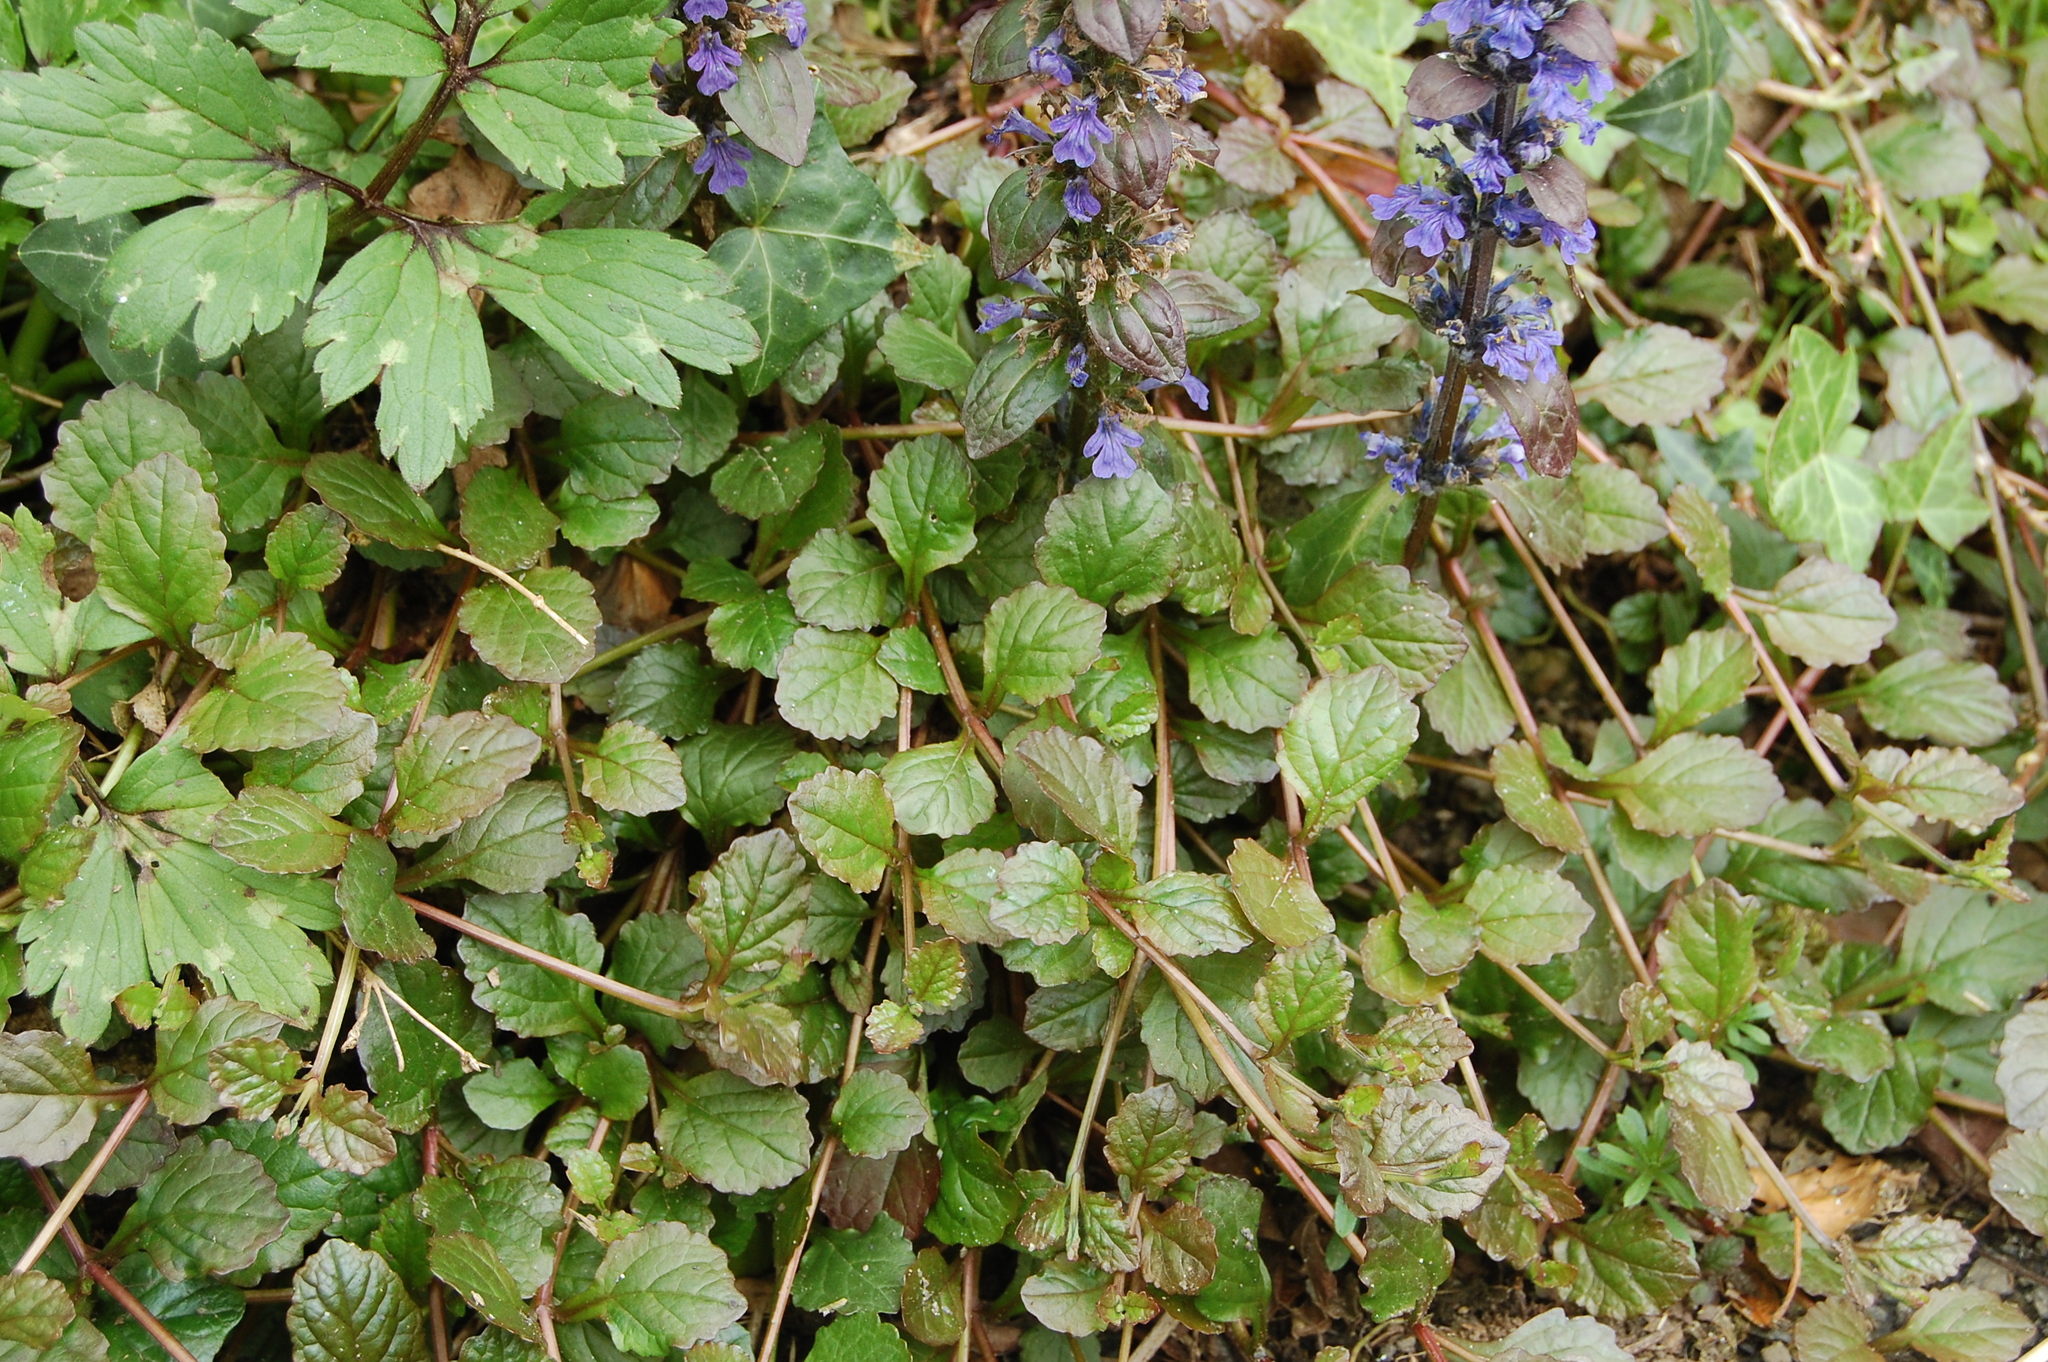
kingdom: Plantae
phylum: Tracheophyta
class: Magnoliopsida
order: Lamiales
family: Lamiaceae
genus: Ajuga
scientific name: Ajuga reptans
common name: Bugle
